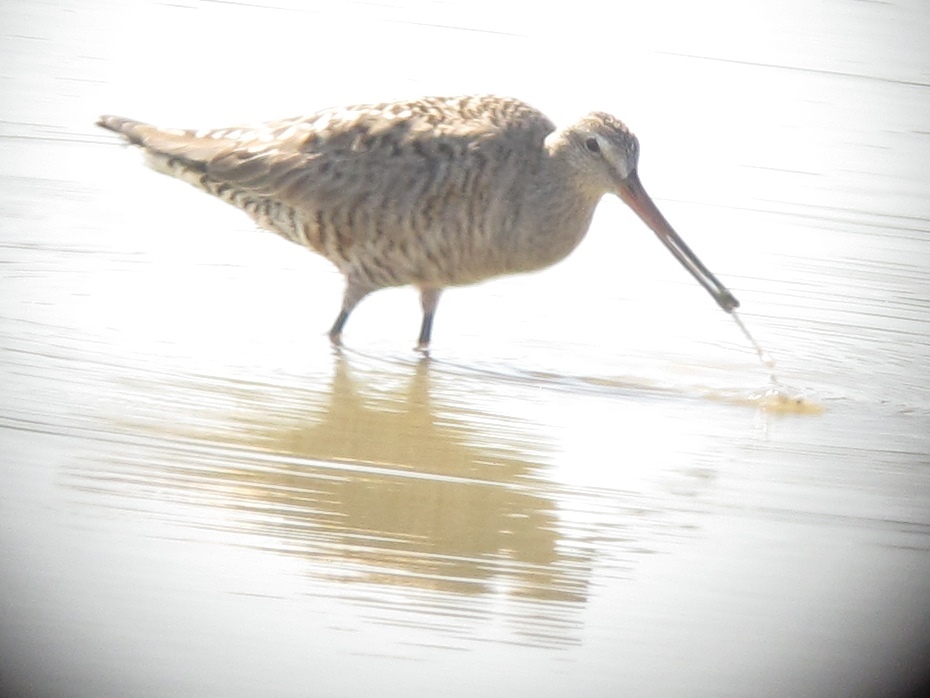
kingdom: Animalia
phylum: Chordata
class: Aves
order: Charadriiformes
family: Scolopacidae
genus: Limosa
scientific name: Limosa haemastica
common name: Hudsonian godwit
